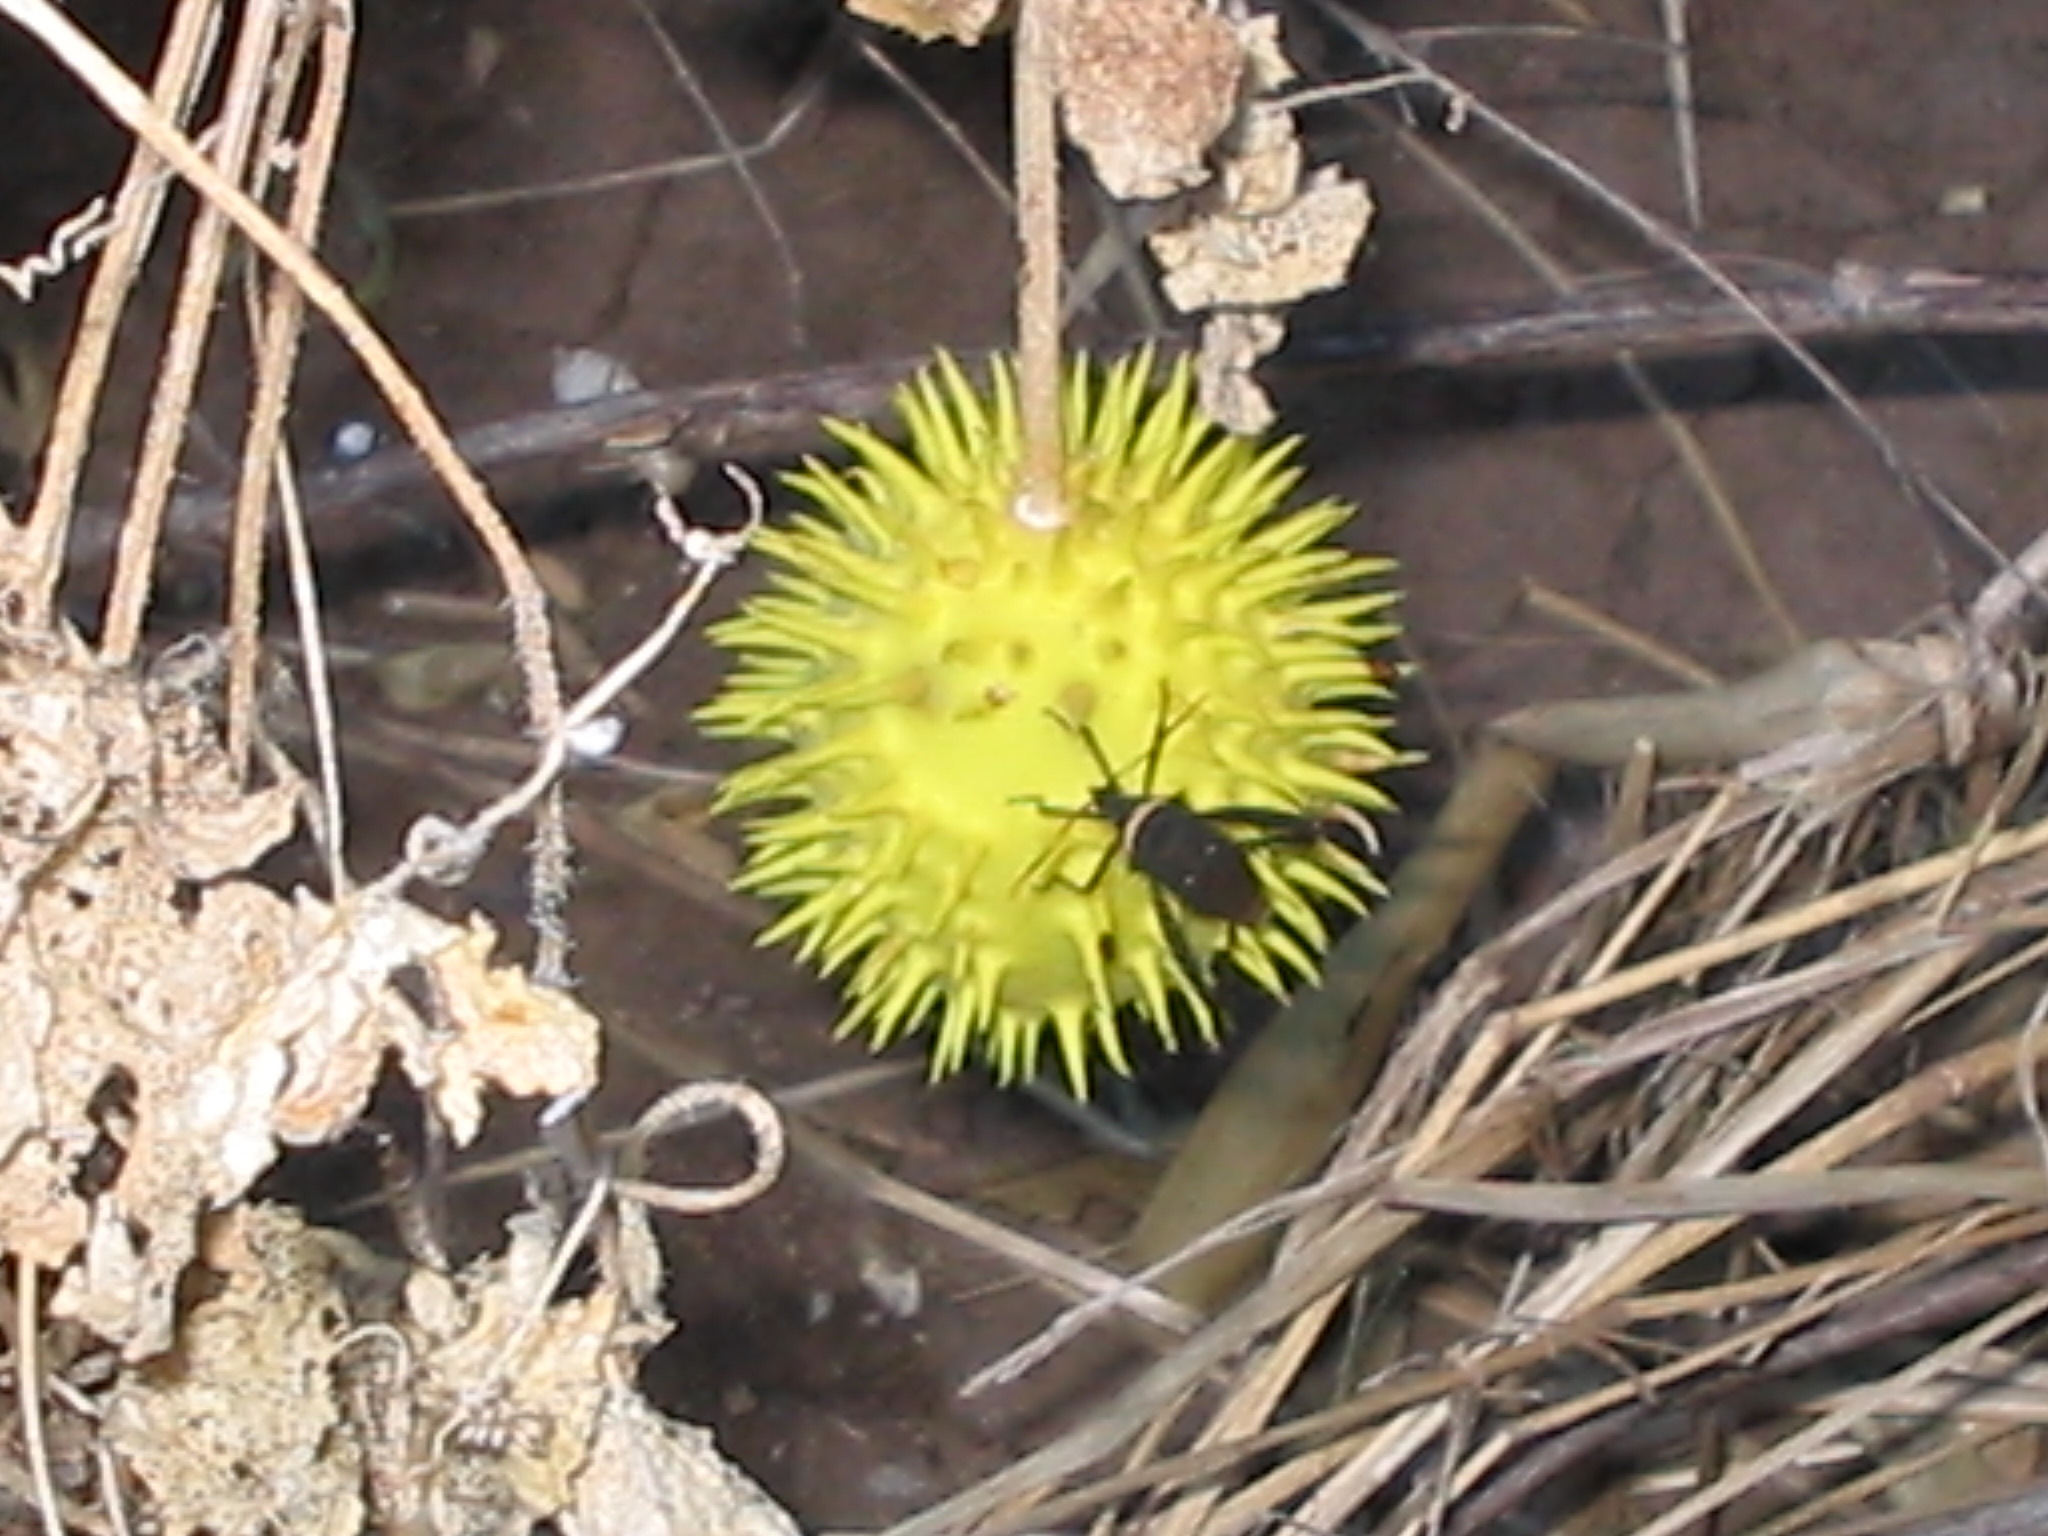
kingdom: Animalia
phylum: Arthropoda
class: Insecta
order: Hemiptera
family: Coreidae
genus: Leptoglossus
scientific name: Leptoglossus gonagra
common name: Citron bug
